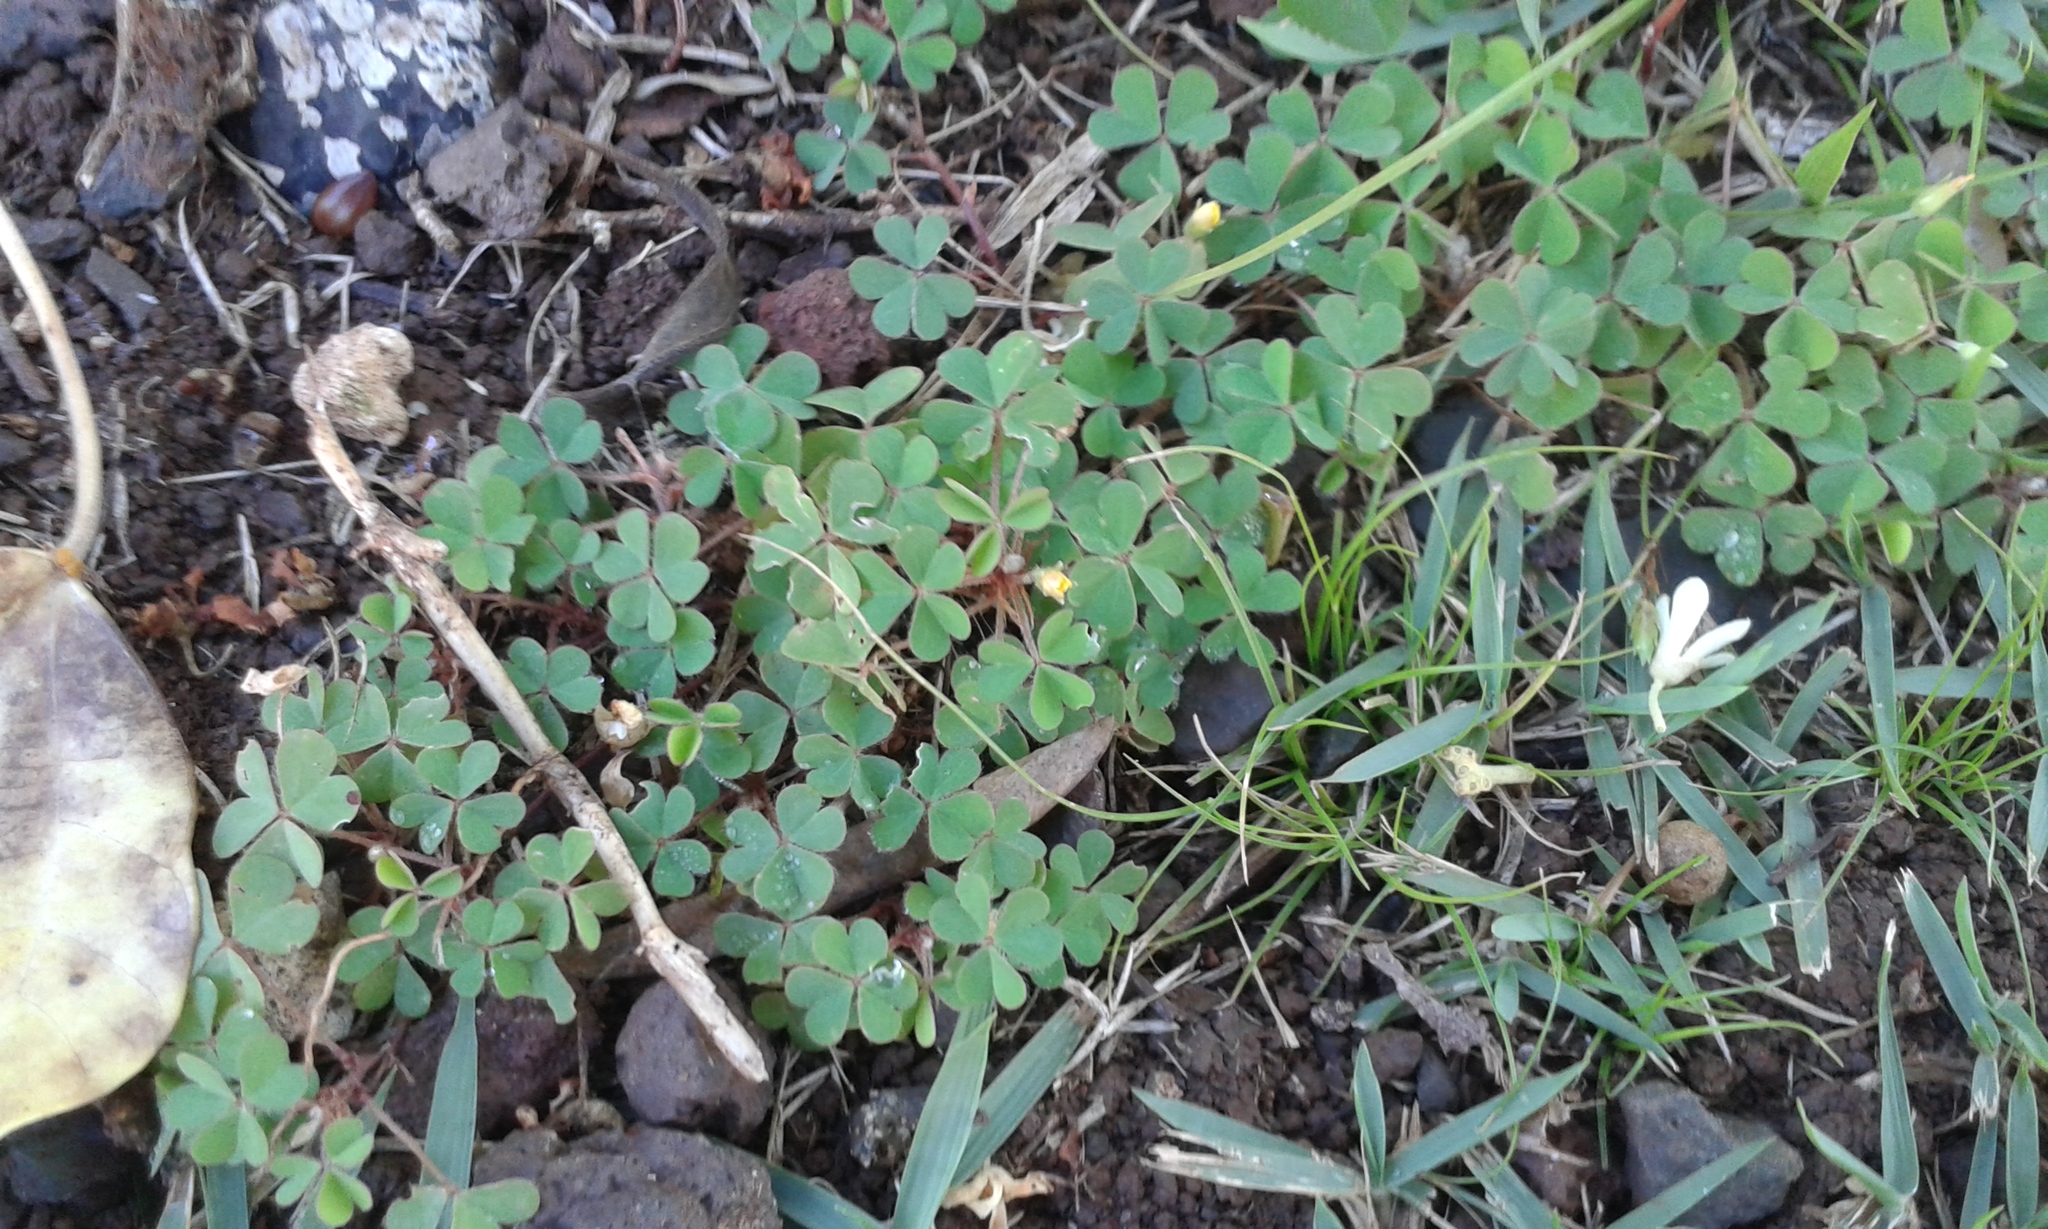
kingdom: Plantae
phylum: Tracheophyta
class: Magnoliopsida
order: Oxalidales
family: Oxalidaceae
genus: Oxalis
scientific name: Oxalis corniculata
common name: Procumbent yellow-sorrel
